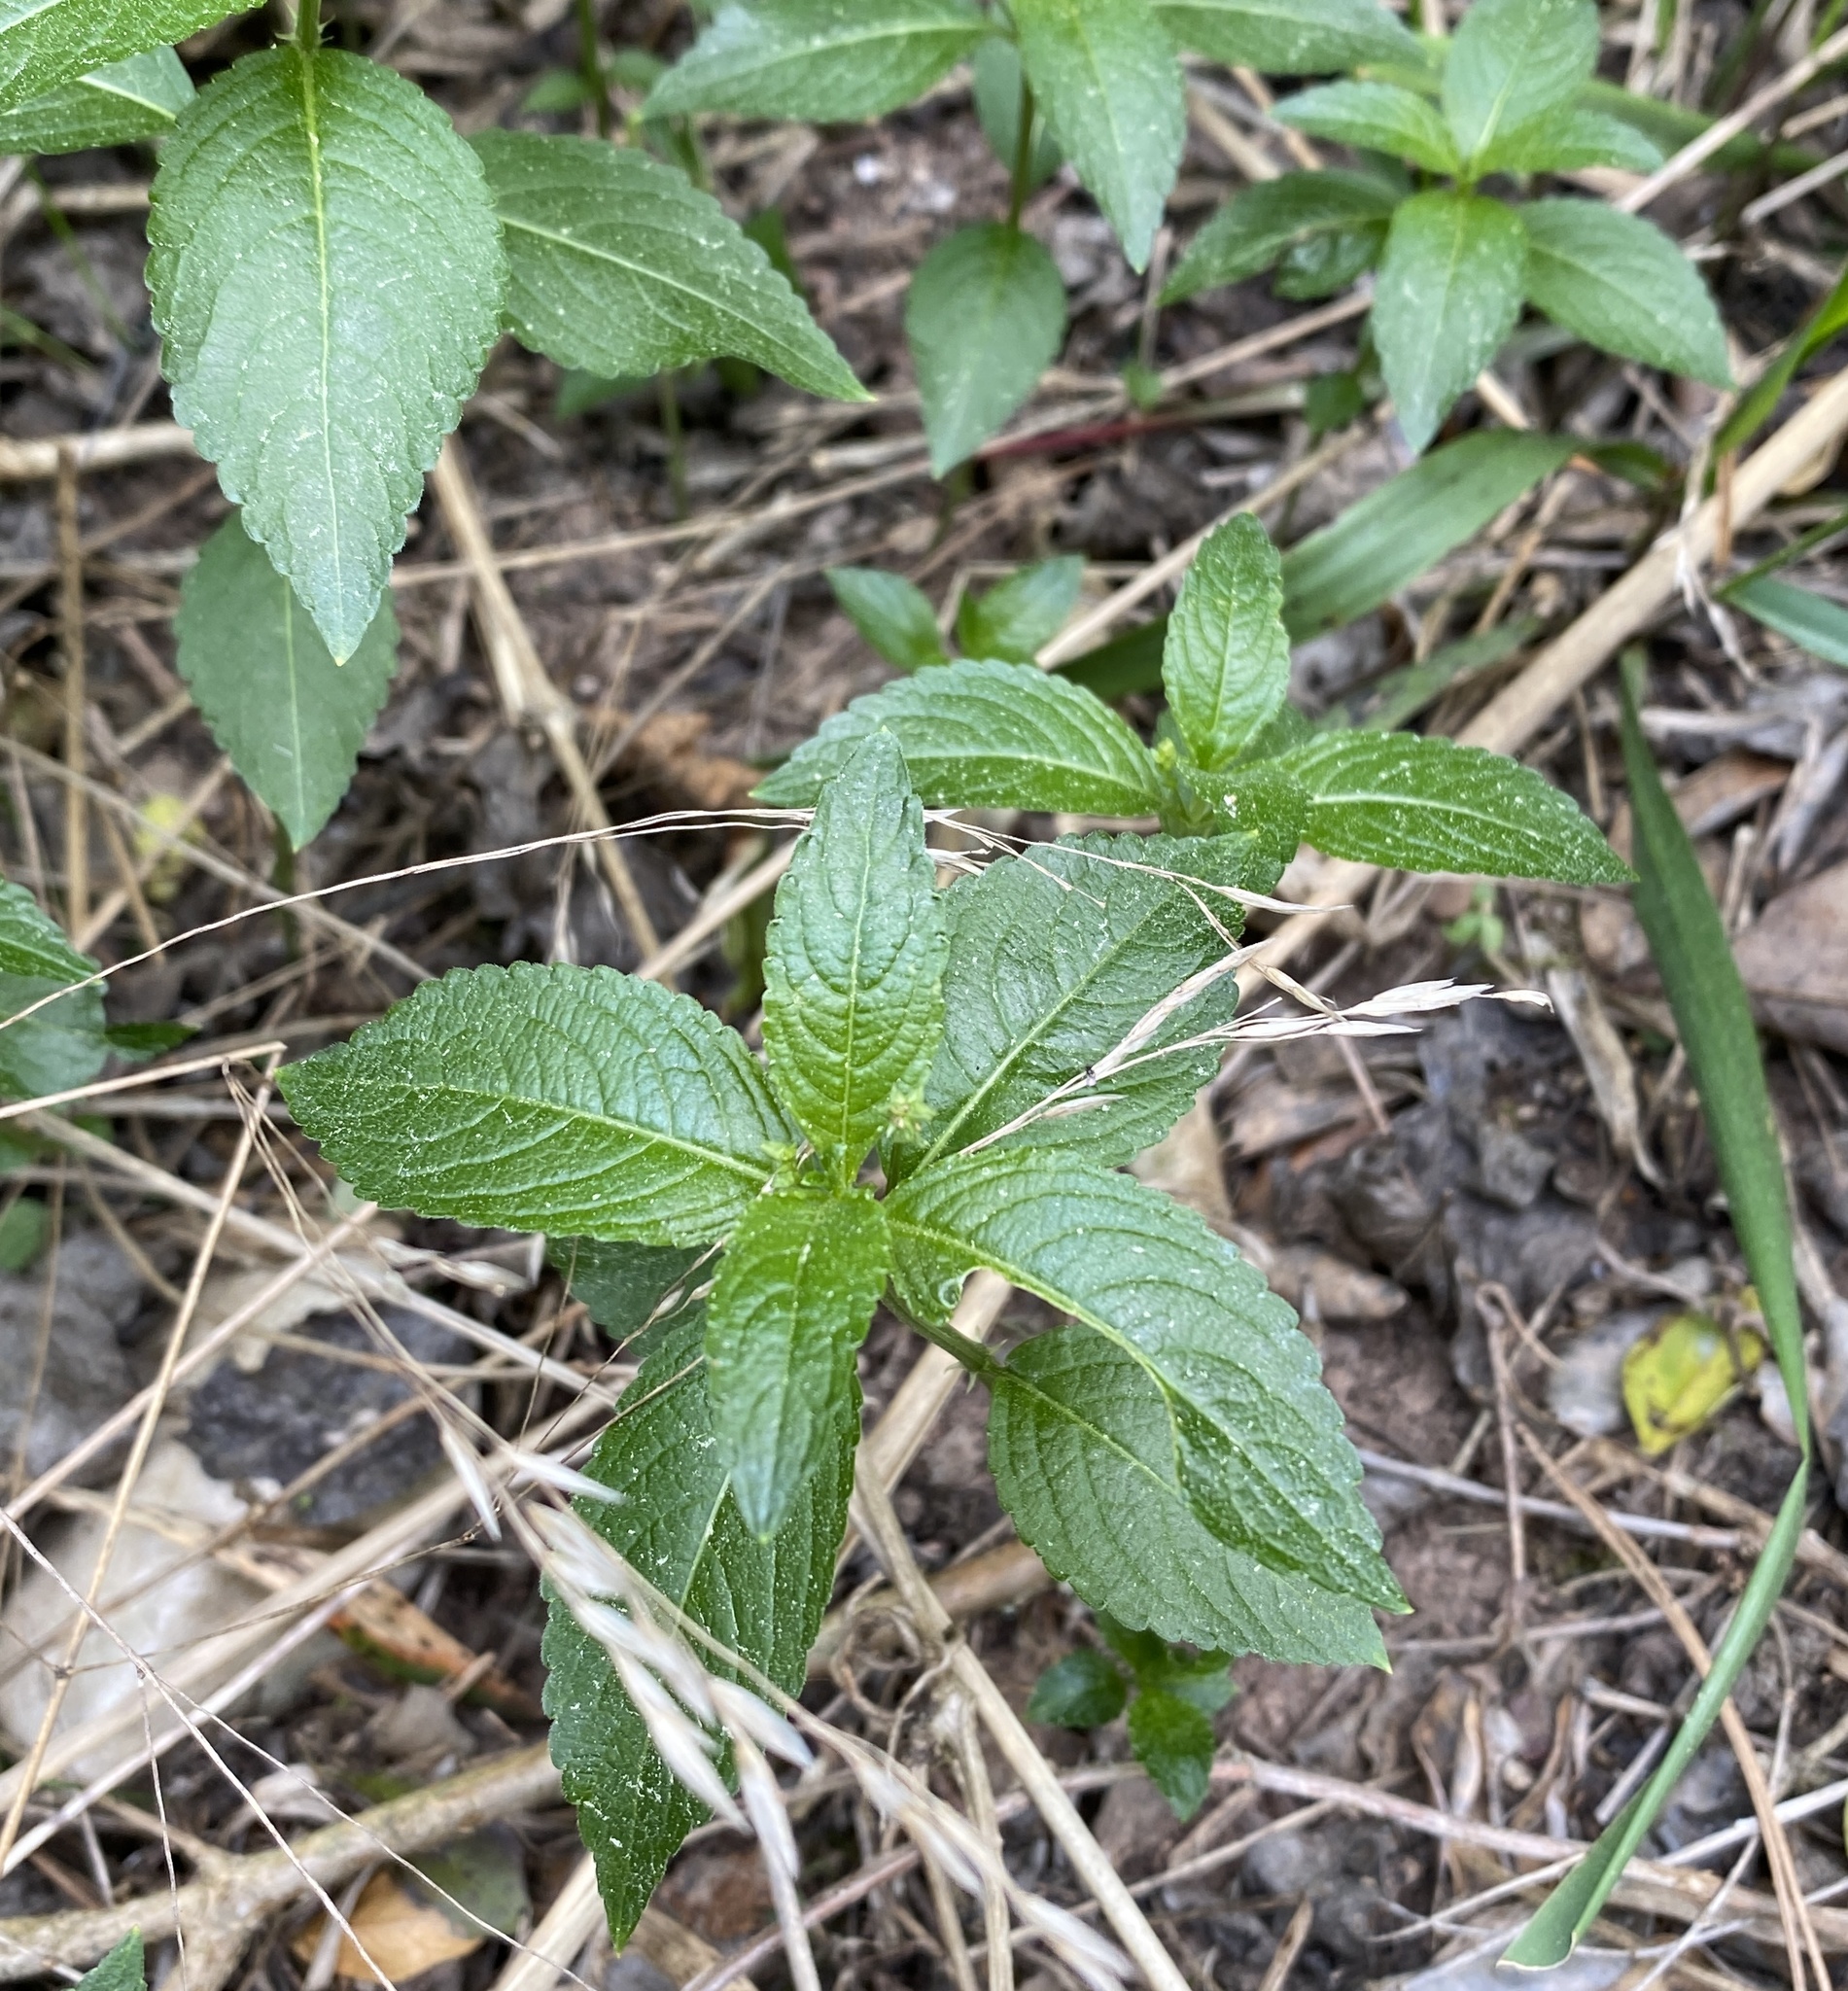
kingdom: Plantae
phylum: Tracheophyta
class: Magnoliopsida
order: Malpighiales
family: Euphorbiaceae
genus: Mercurialis
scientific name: Mercurialis perennis
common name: Dog mercury
